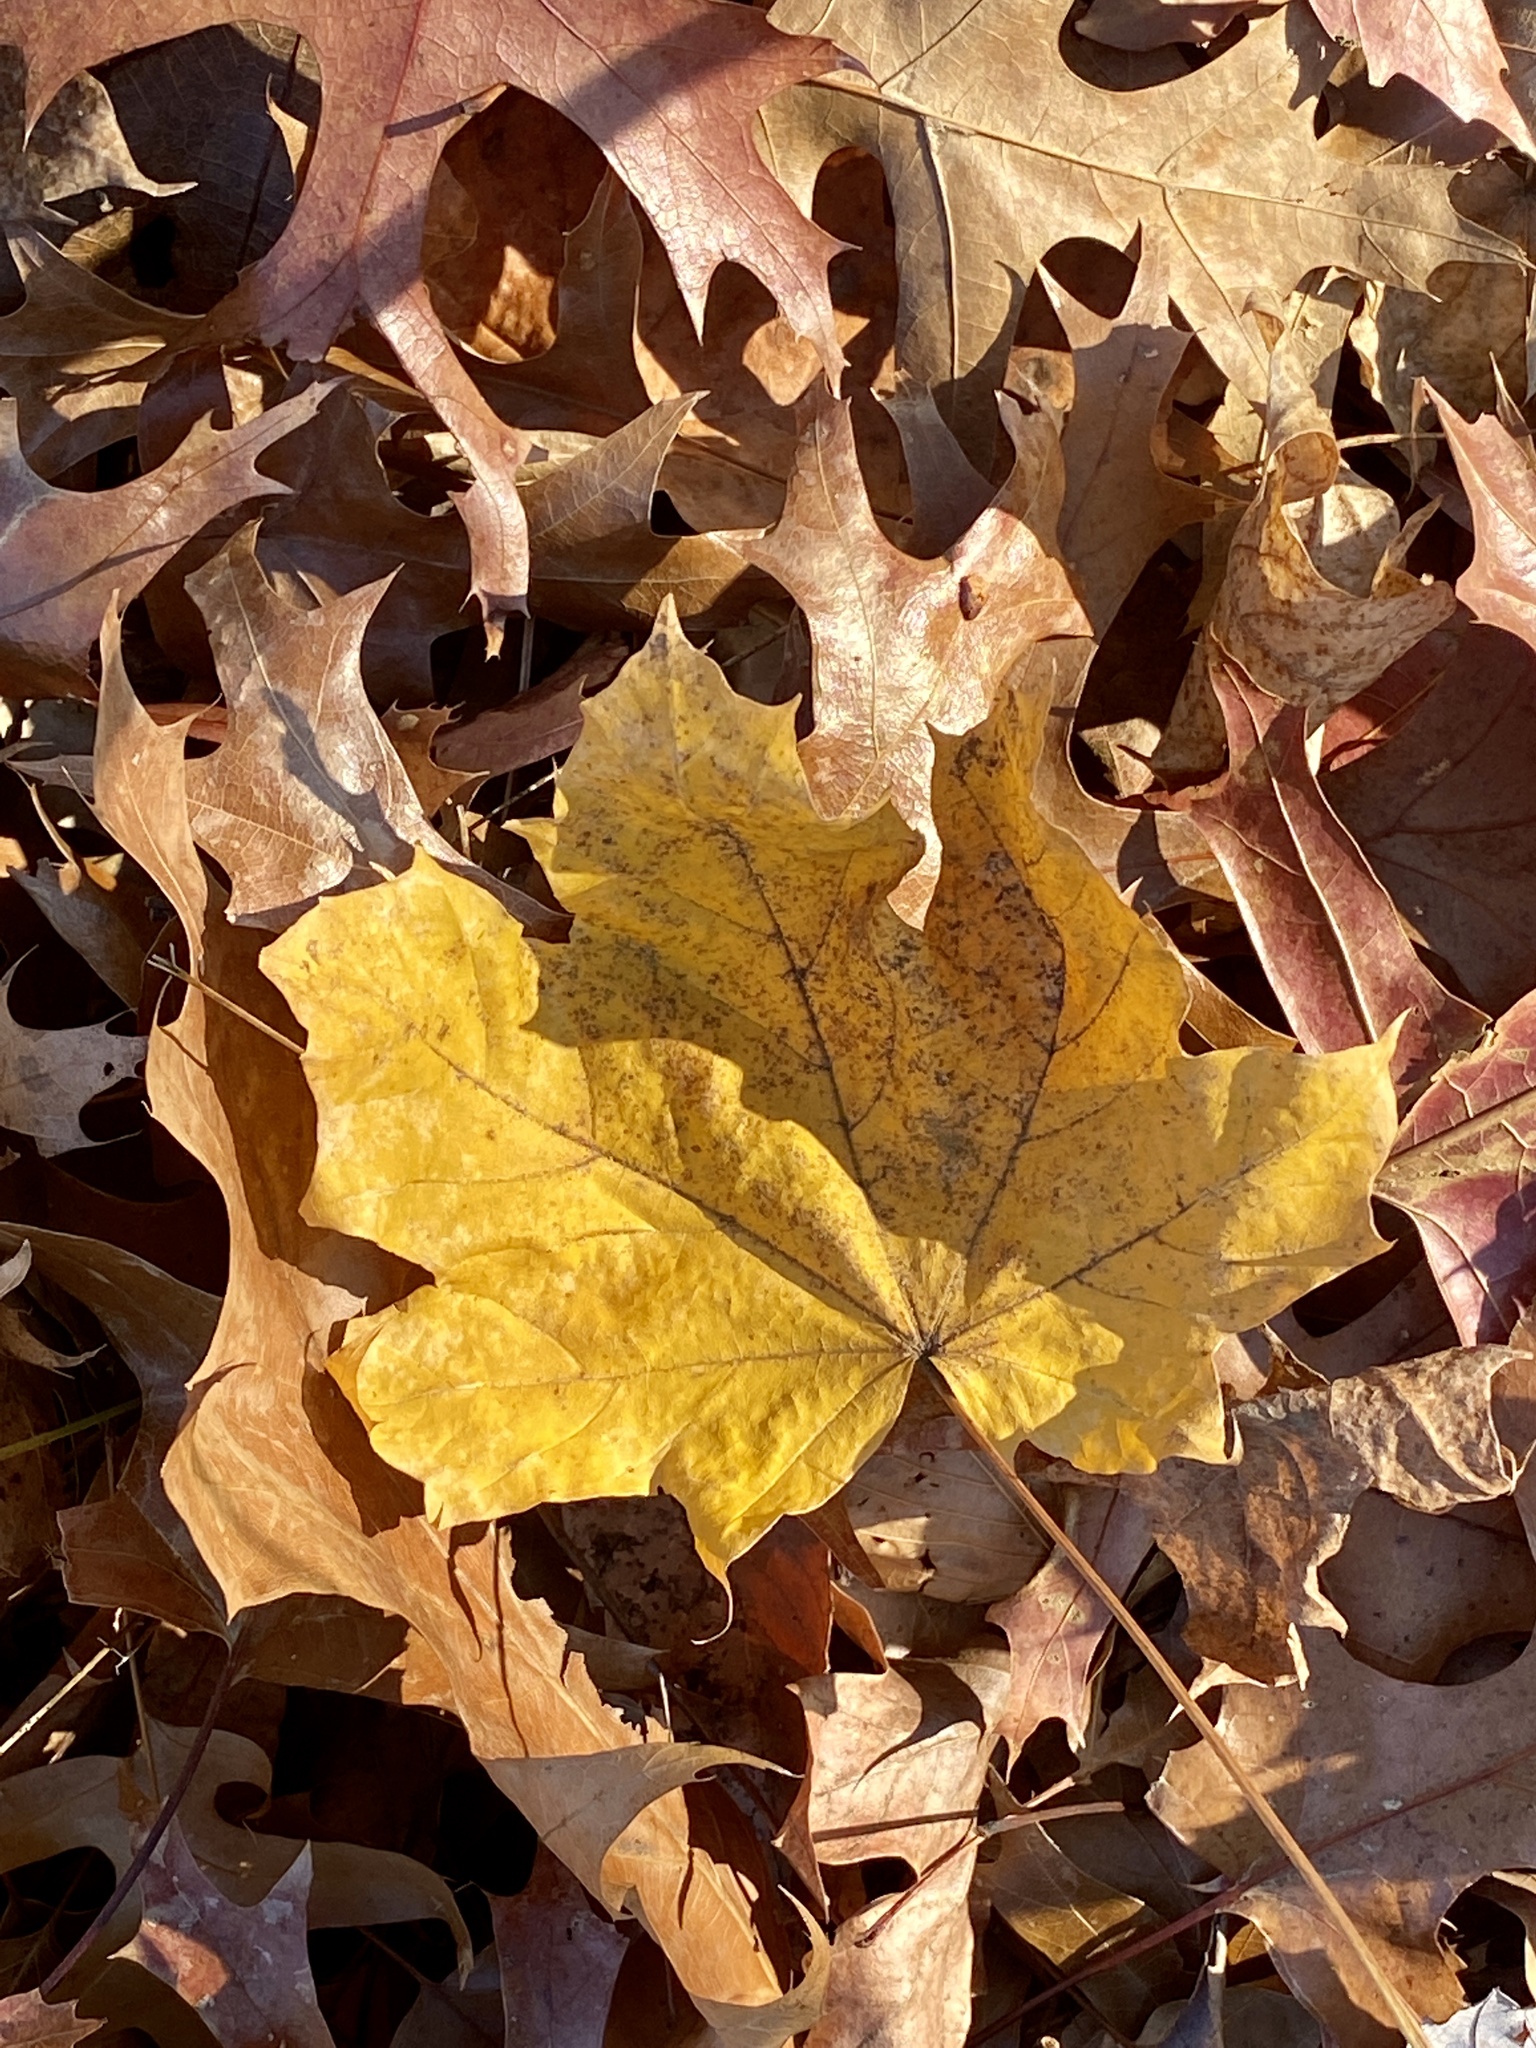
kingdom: Plantae
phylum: Tracheophyta
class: Magnoliopsida
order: Sapindales
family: Sapindaceae
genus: Acer
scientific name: Acer platanoides
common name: Norway maple
